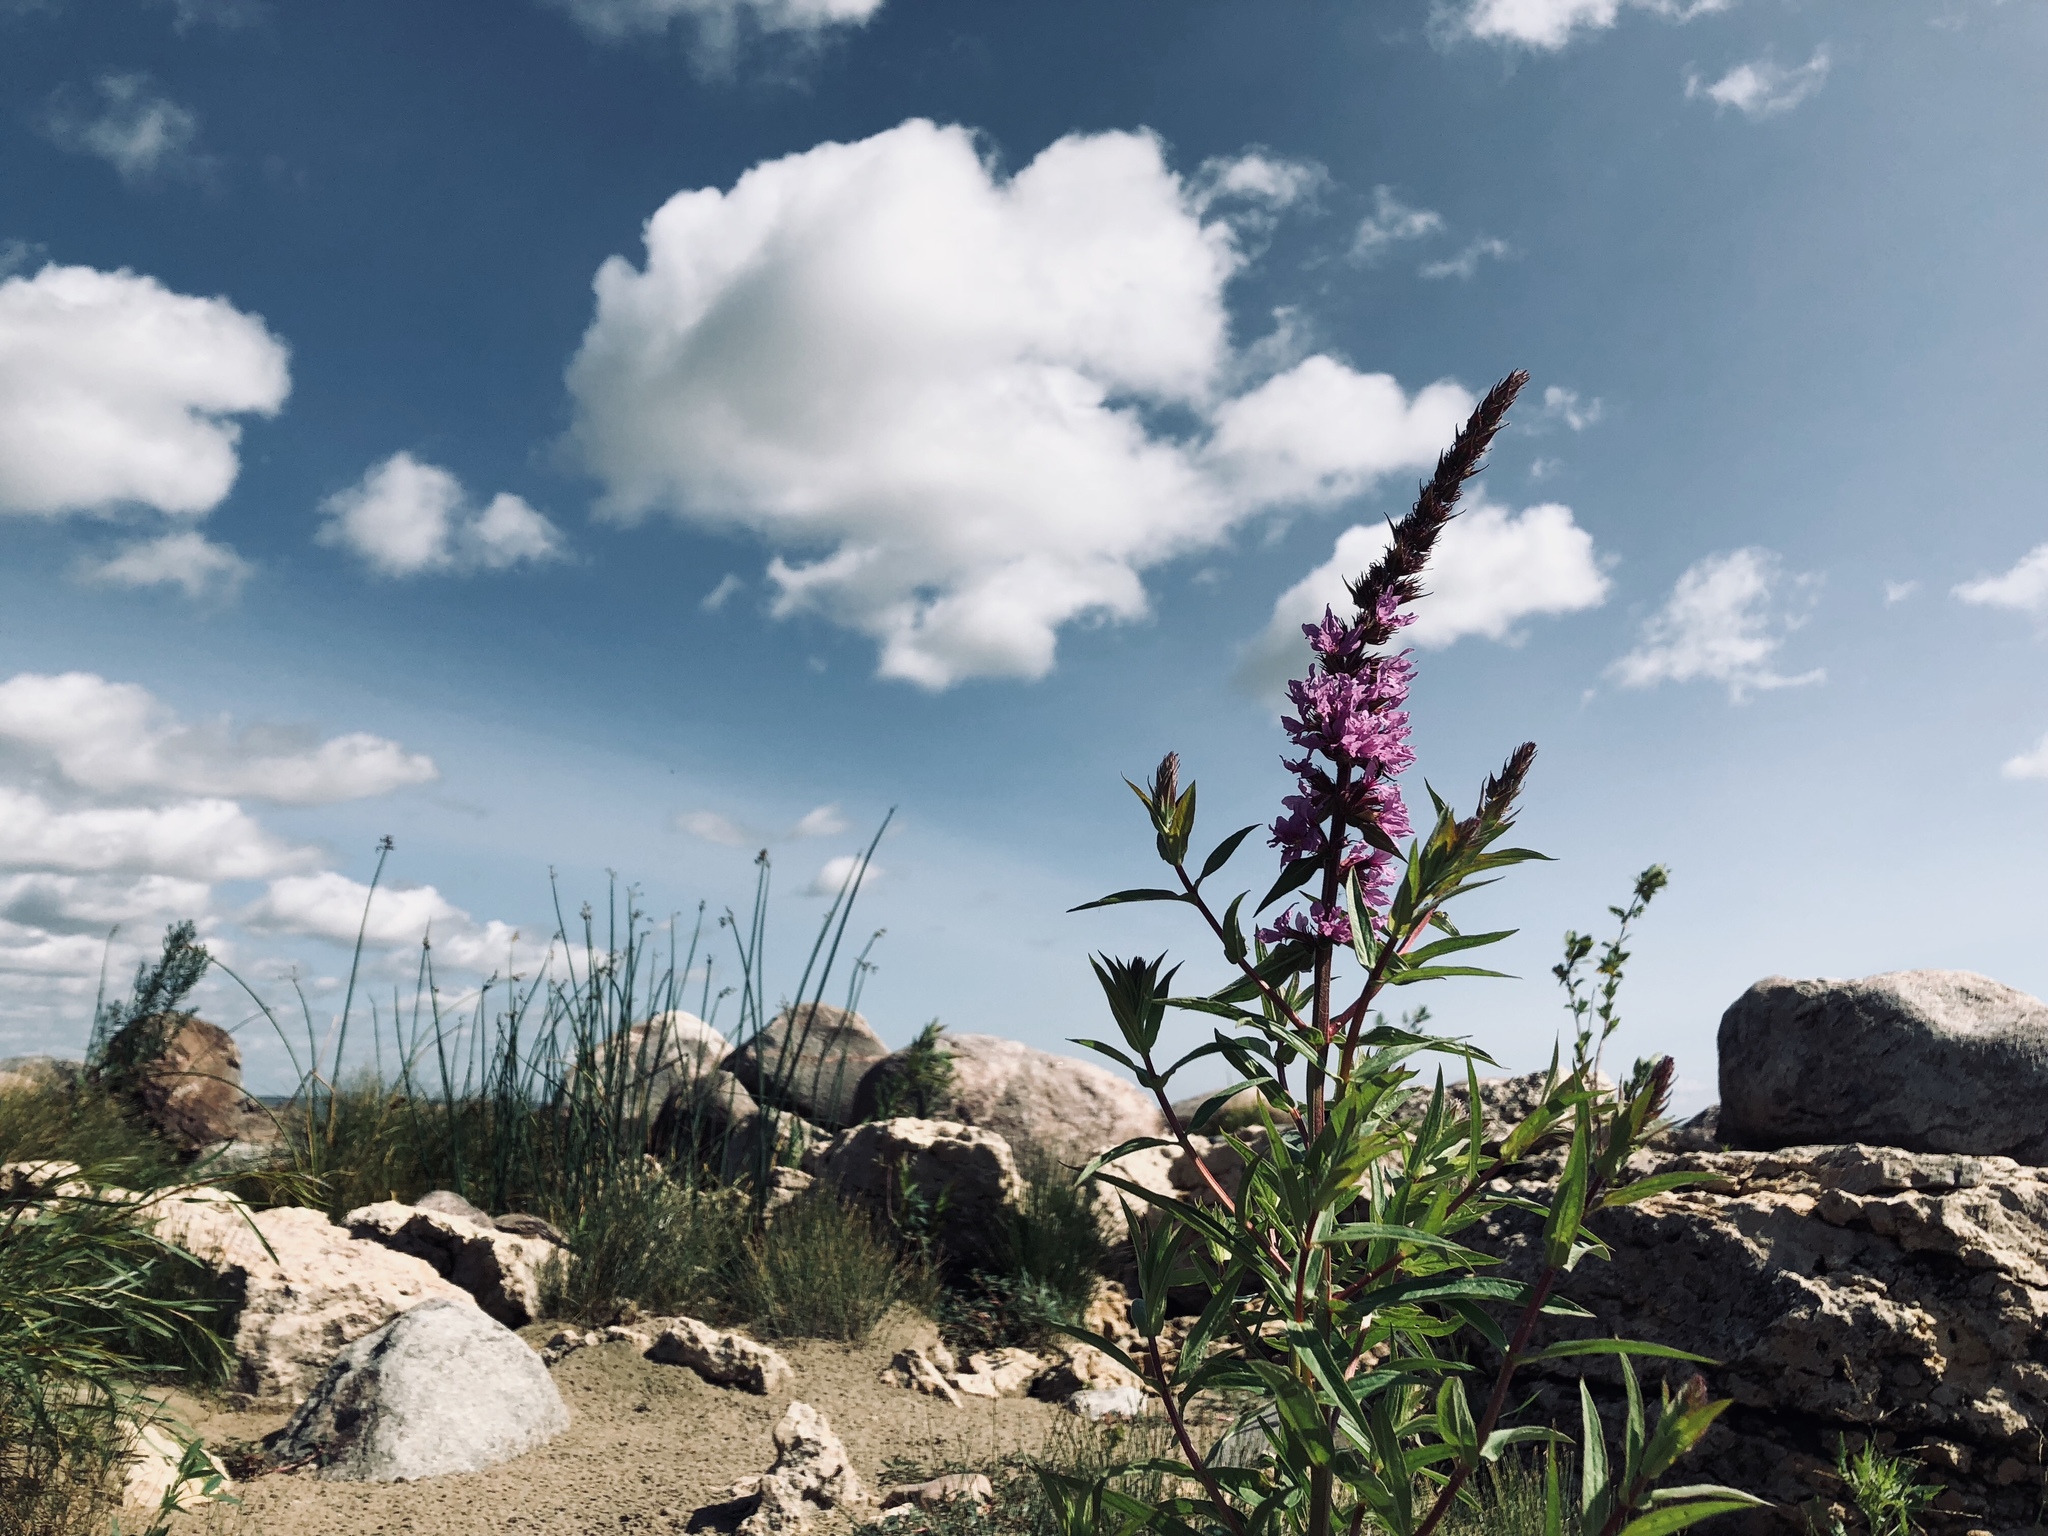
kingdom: Plantae
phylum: Tracheophyta
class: Magnoliopsida
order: Myrtales
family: Lythraceae
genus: Lythrum
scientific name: Lythrum salicaria
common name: Purple loosestrife
